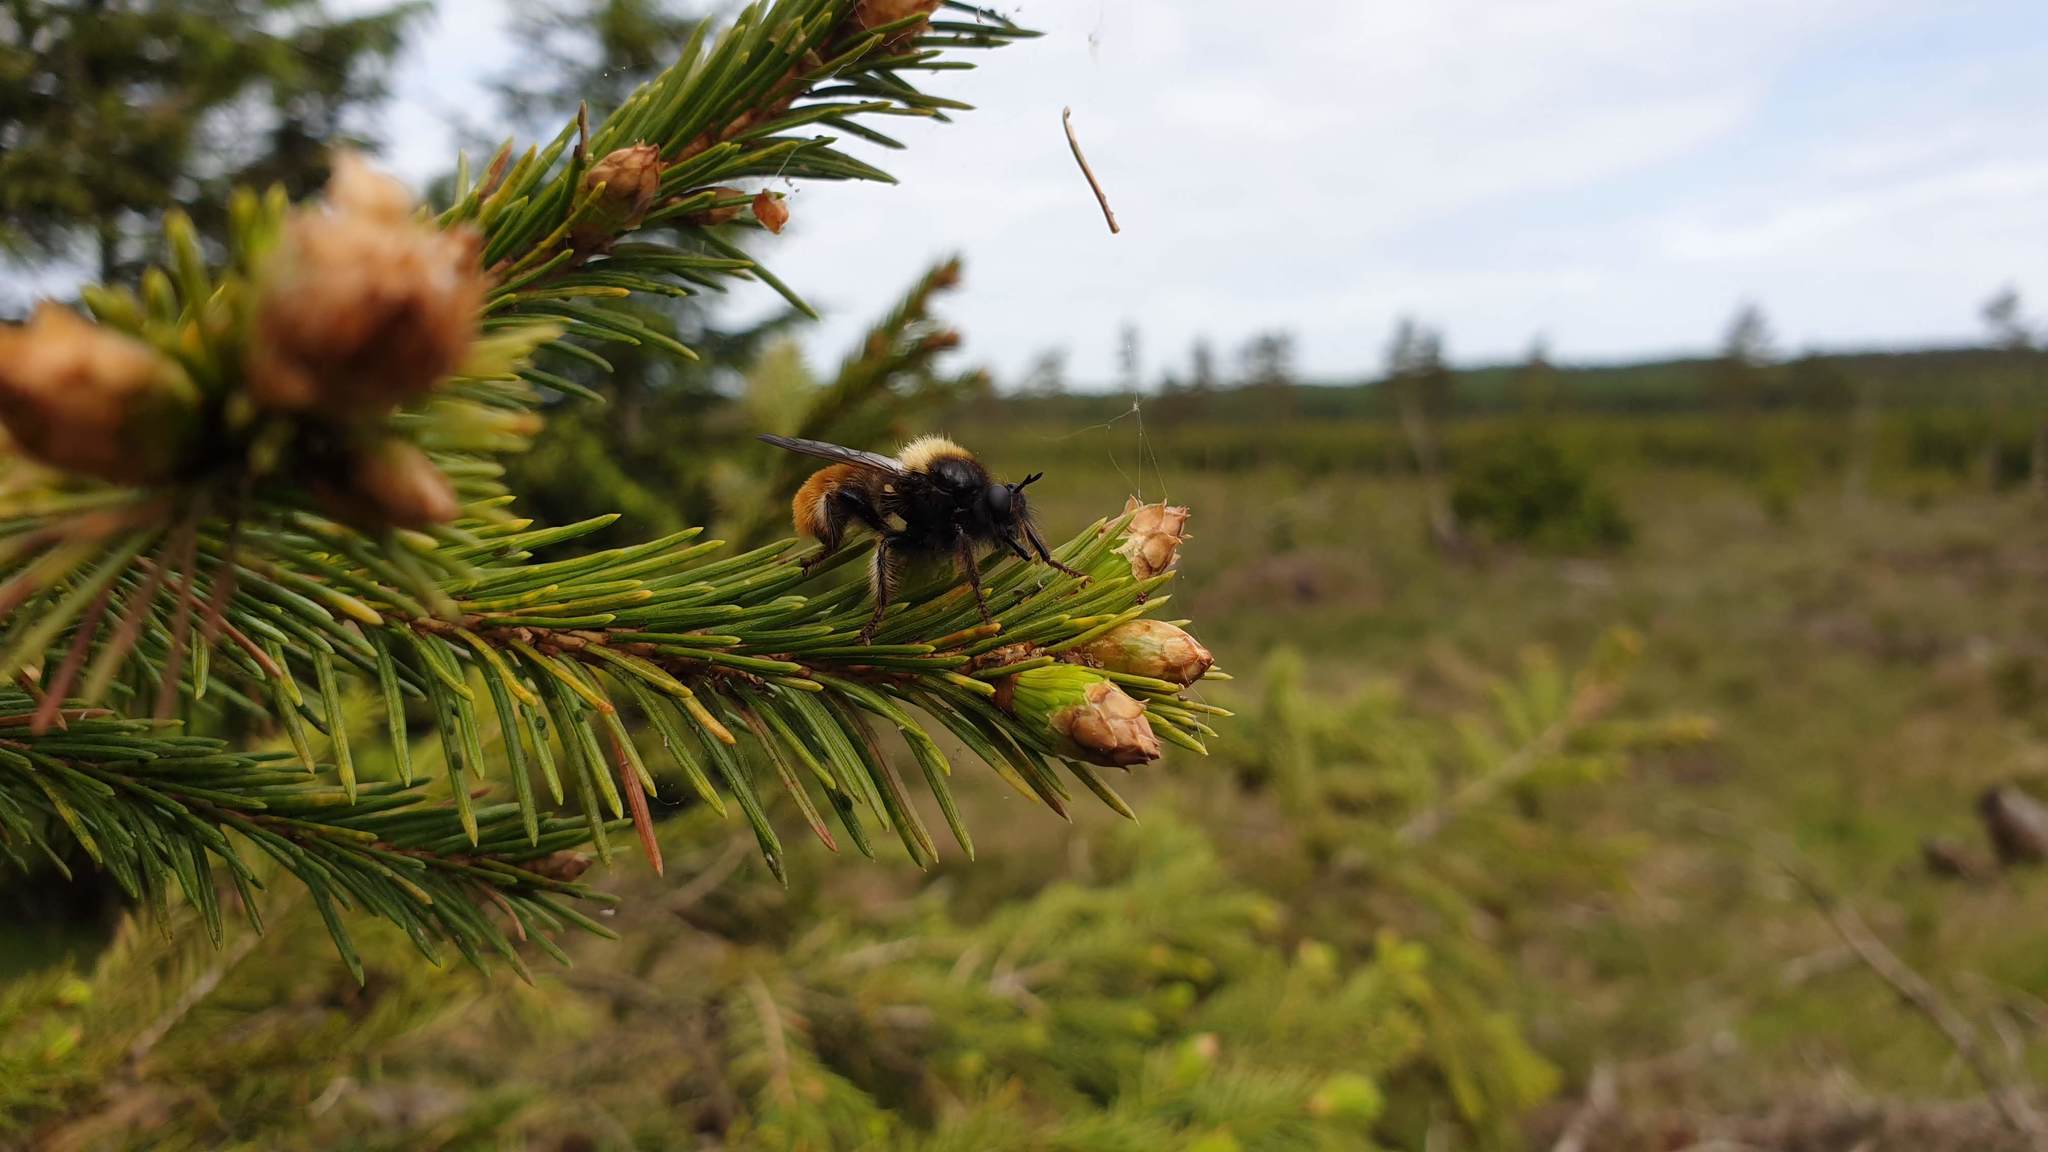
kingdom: Animalia
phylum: Arthropoda
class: Insecta
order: Diptera
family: Asilidae
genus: Laphria
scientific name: Laphria flava
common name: Bumblebee robberfly
